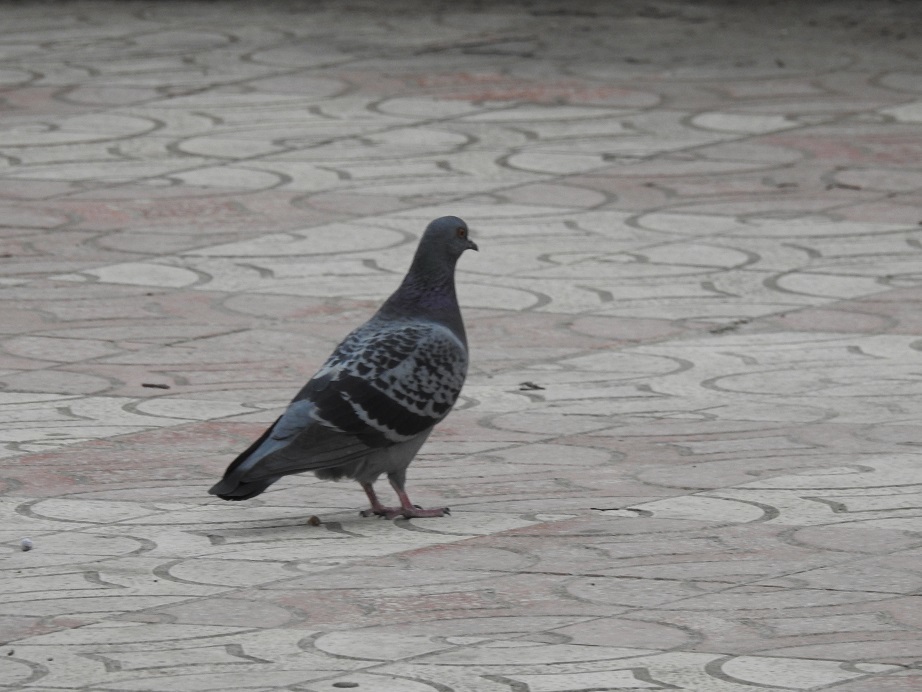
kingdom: Animalia
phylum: Chordata
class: Aves
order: Columbiformes
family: Columbidae
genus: Columba
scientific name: Columba livia
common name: Rock pigeon
